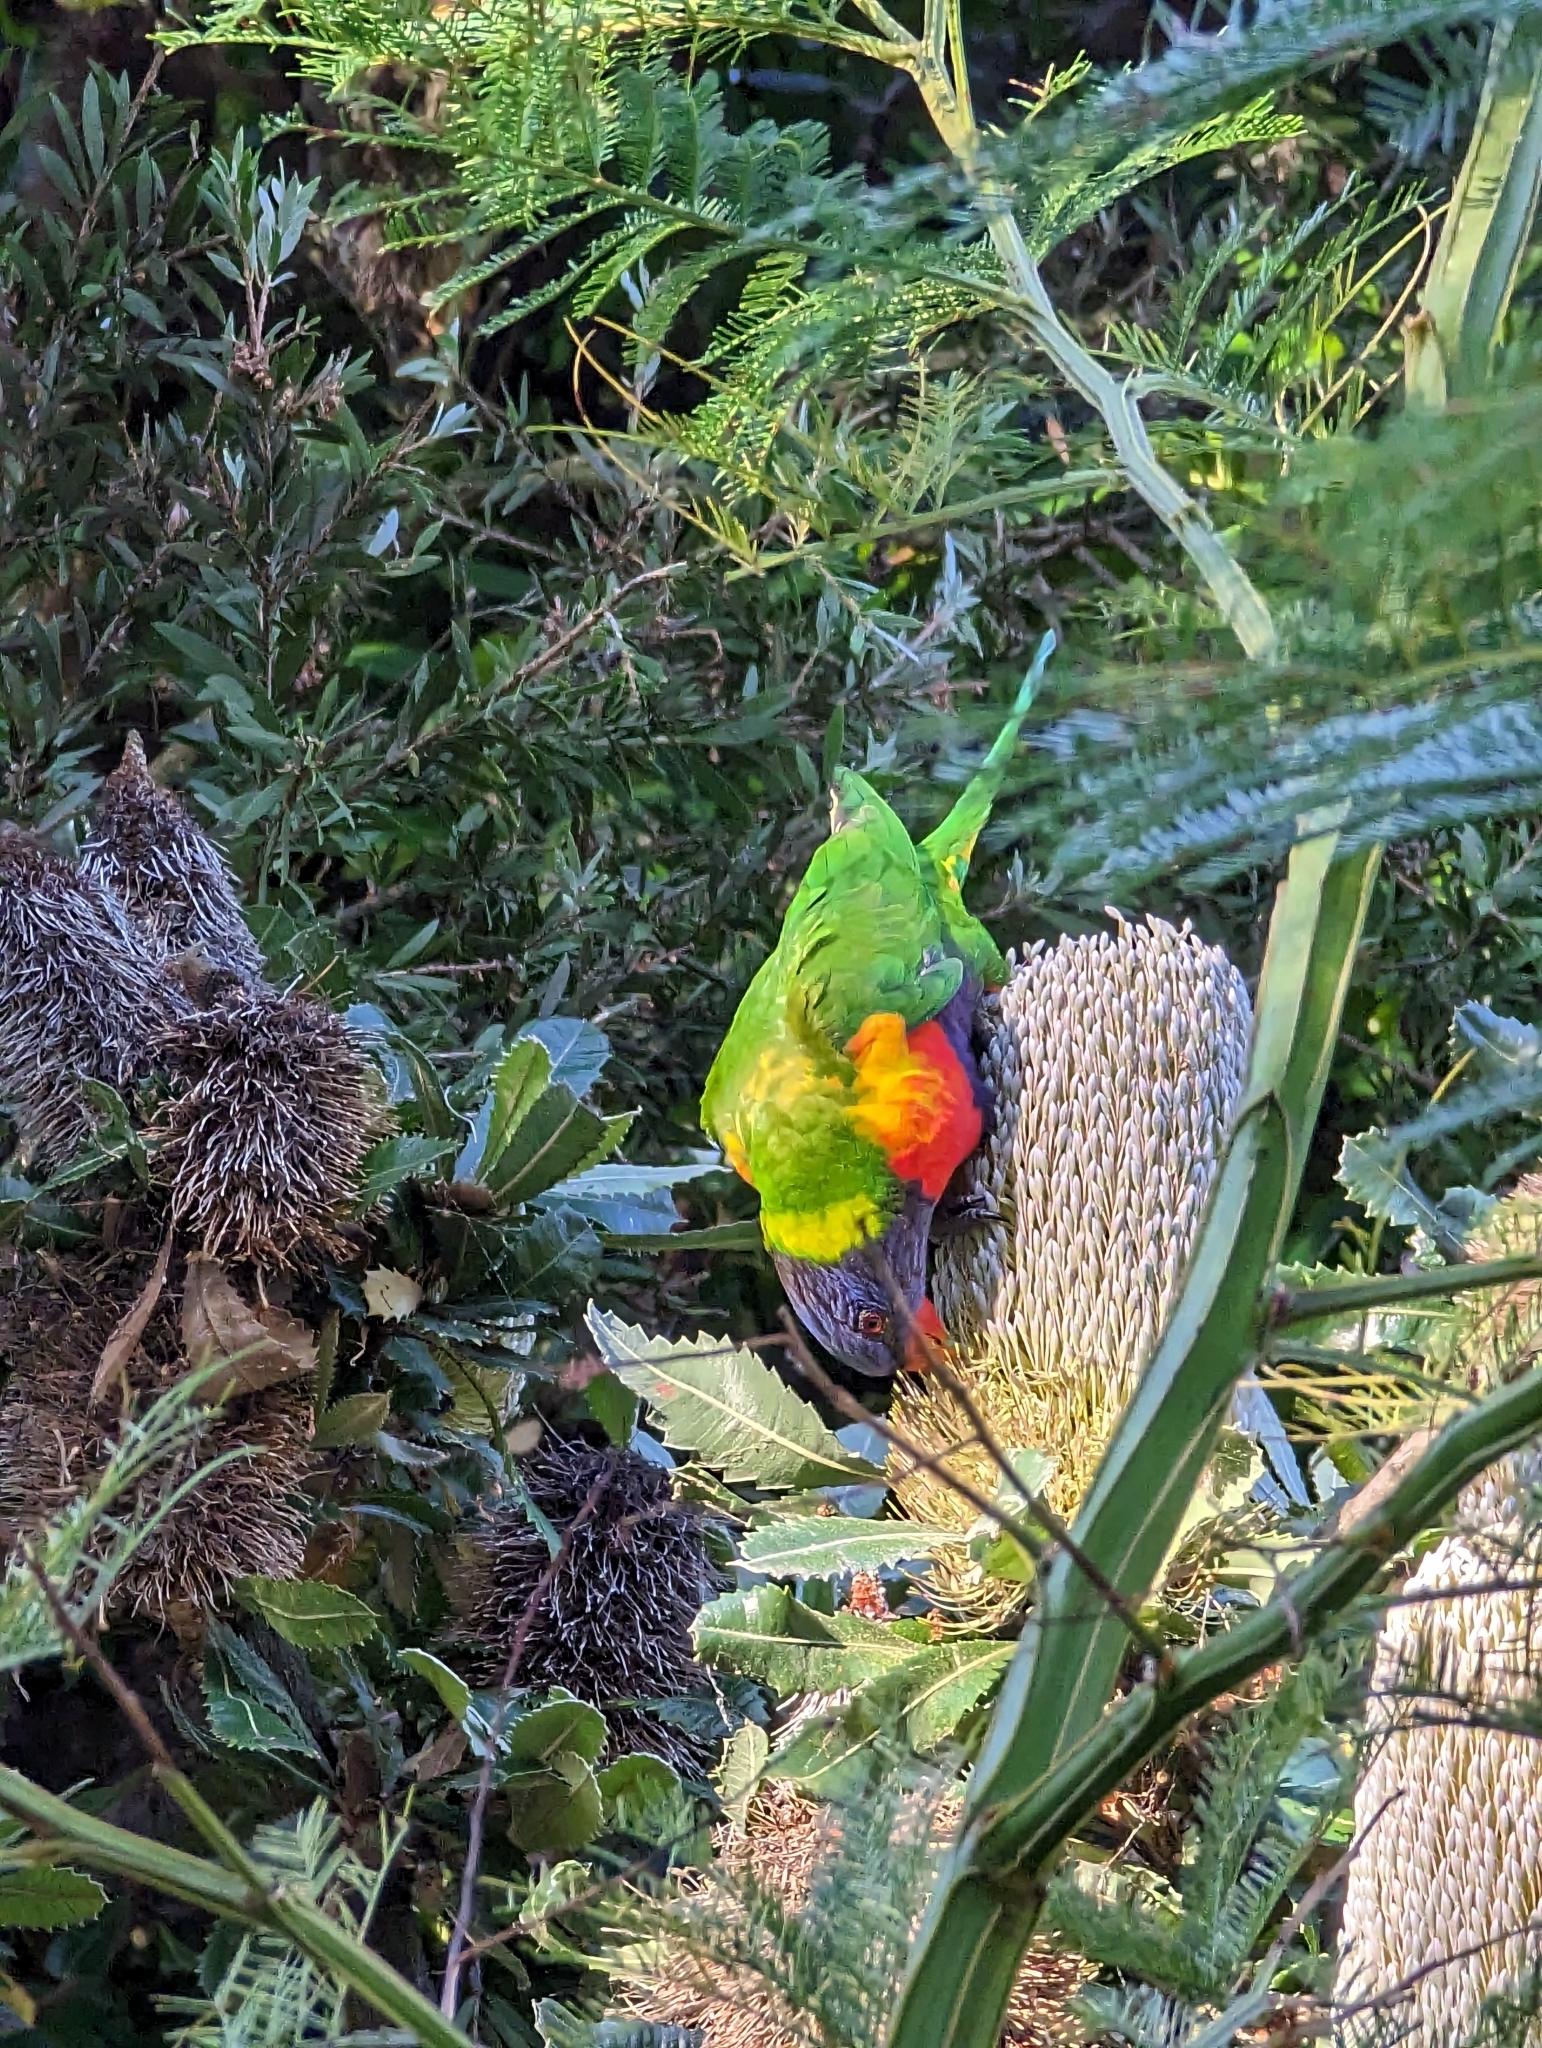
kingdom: Animalia
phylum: Chordata
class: Aves
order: Psittaciformes
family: Psittacidae
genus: Trichoglossus
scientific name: Trichoglossus haematodus
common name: Coconut lorikeet
